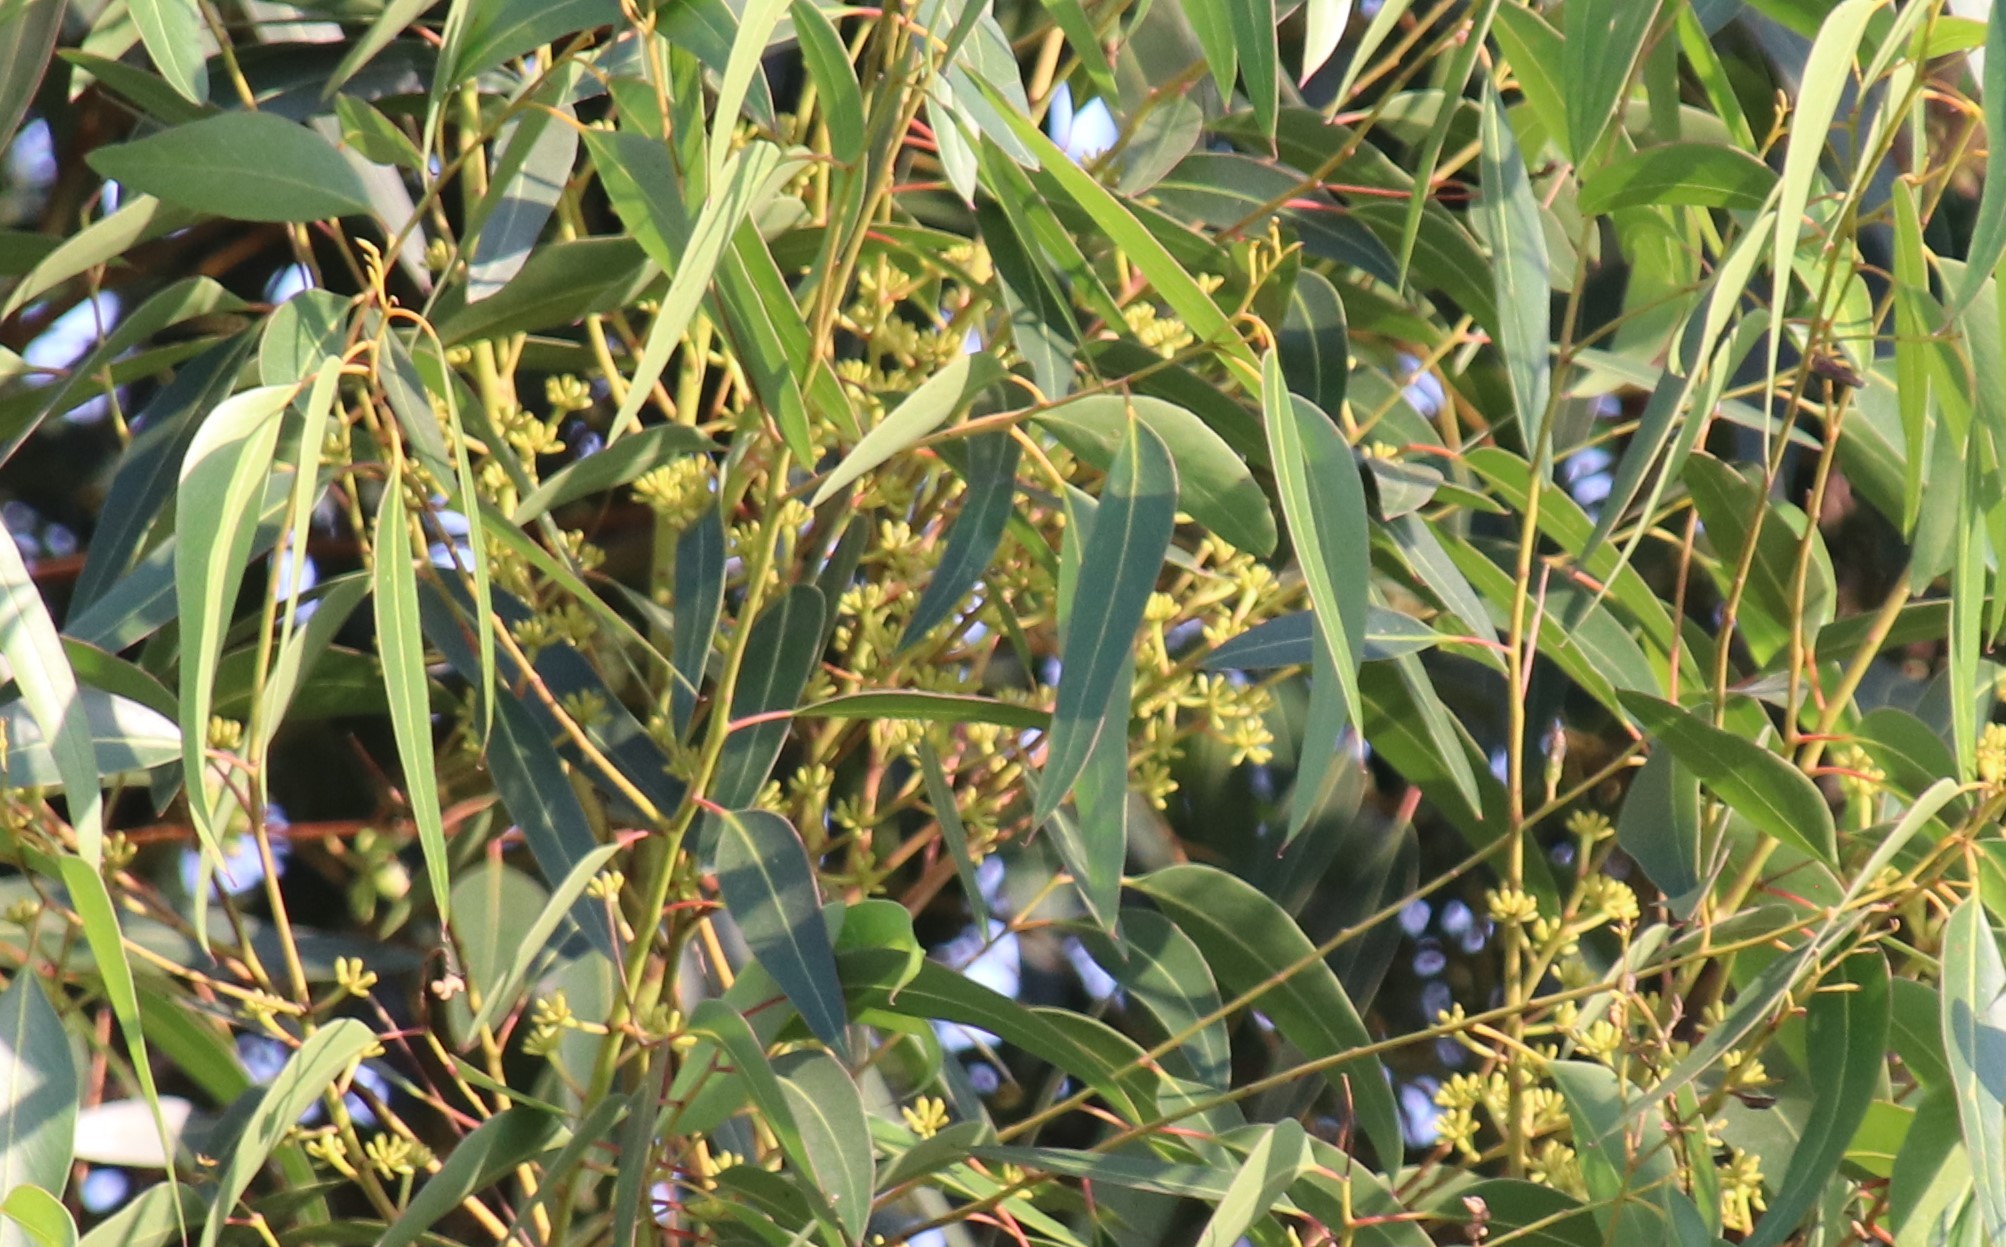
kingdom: Plantae
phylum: Tracheophyta
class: Magnoliopsida
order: Myrtales
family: Myrtaceae
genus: Eucalyptus
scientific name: Eucalyptus cladocalyx
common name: Sugargum
